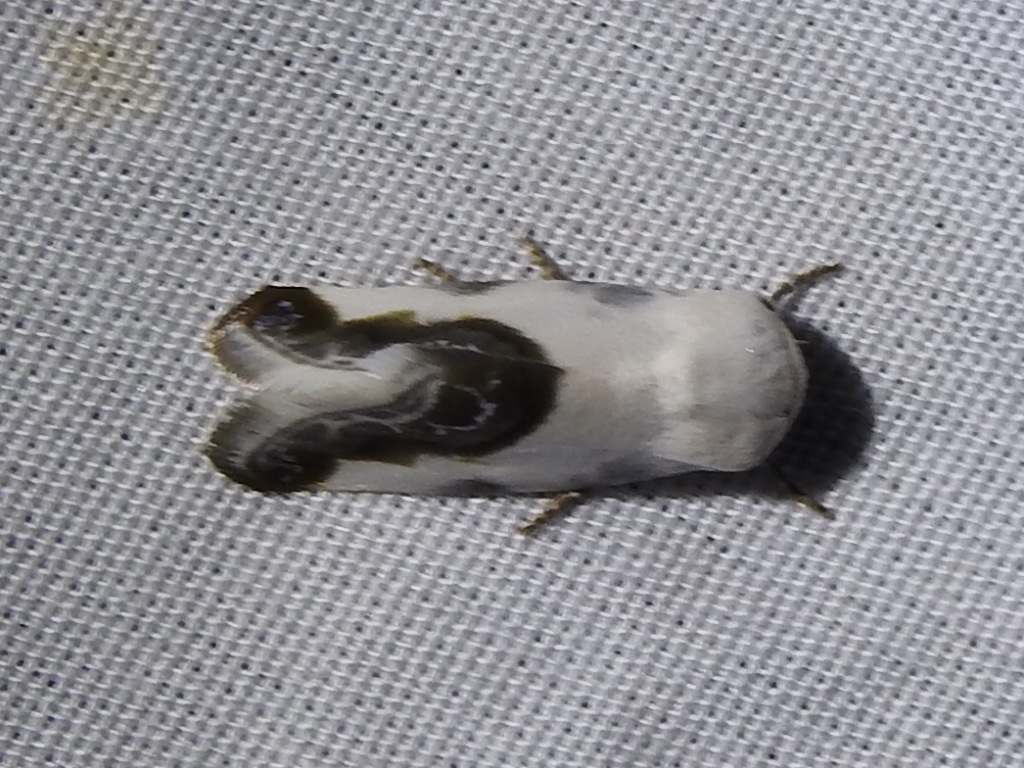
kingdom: Animalia
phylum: Arthropoda
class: Insecta
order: Lepidoptera
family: Noctuidae
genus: Acontia
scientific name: Acontia cretata
